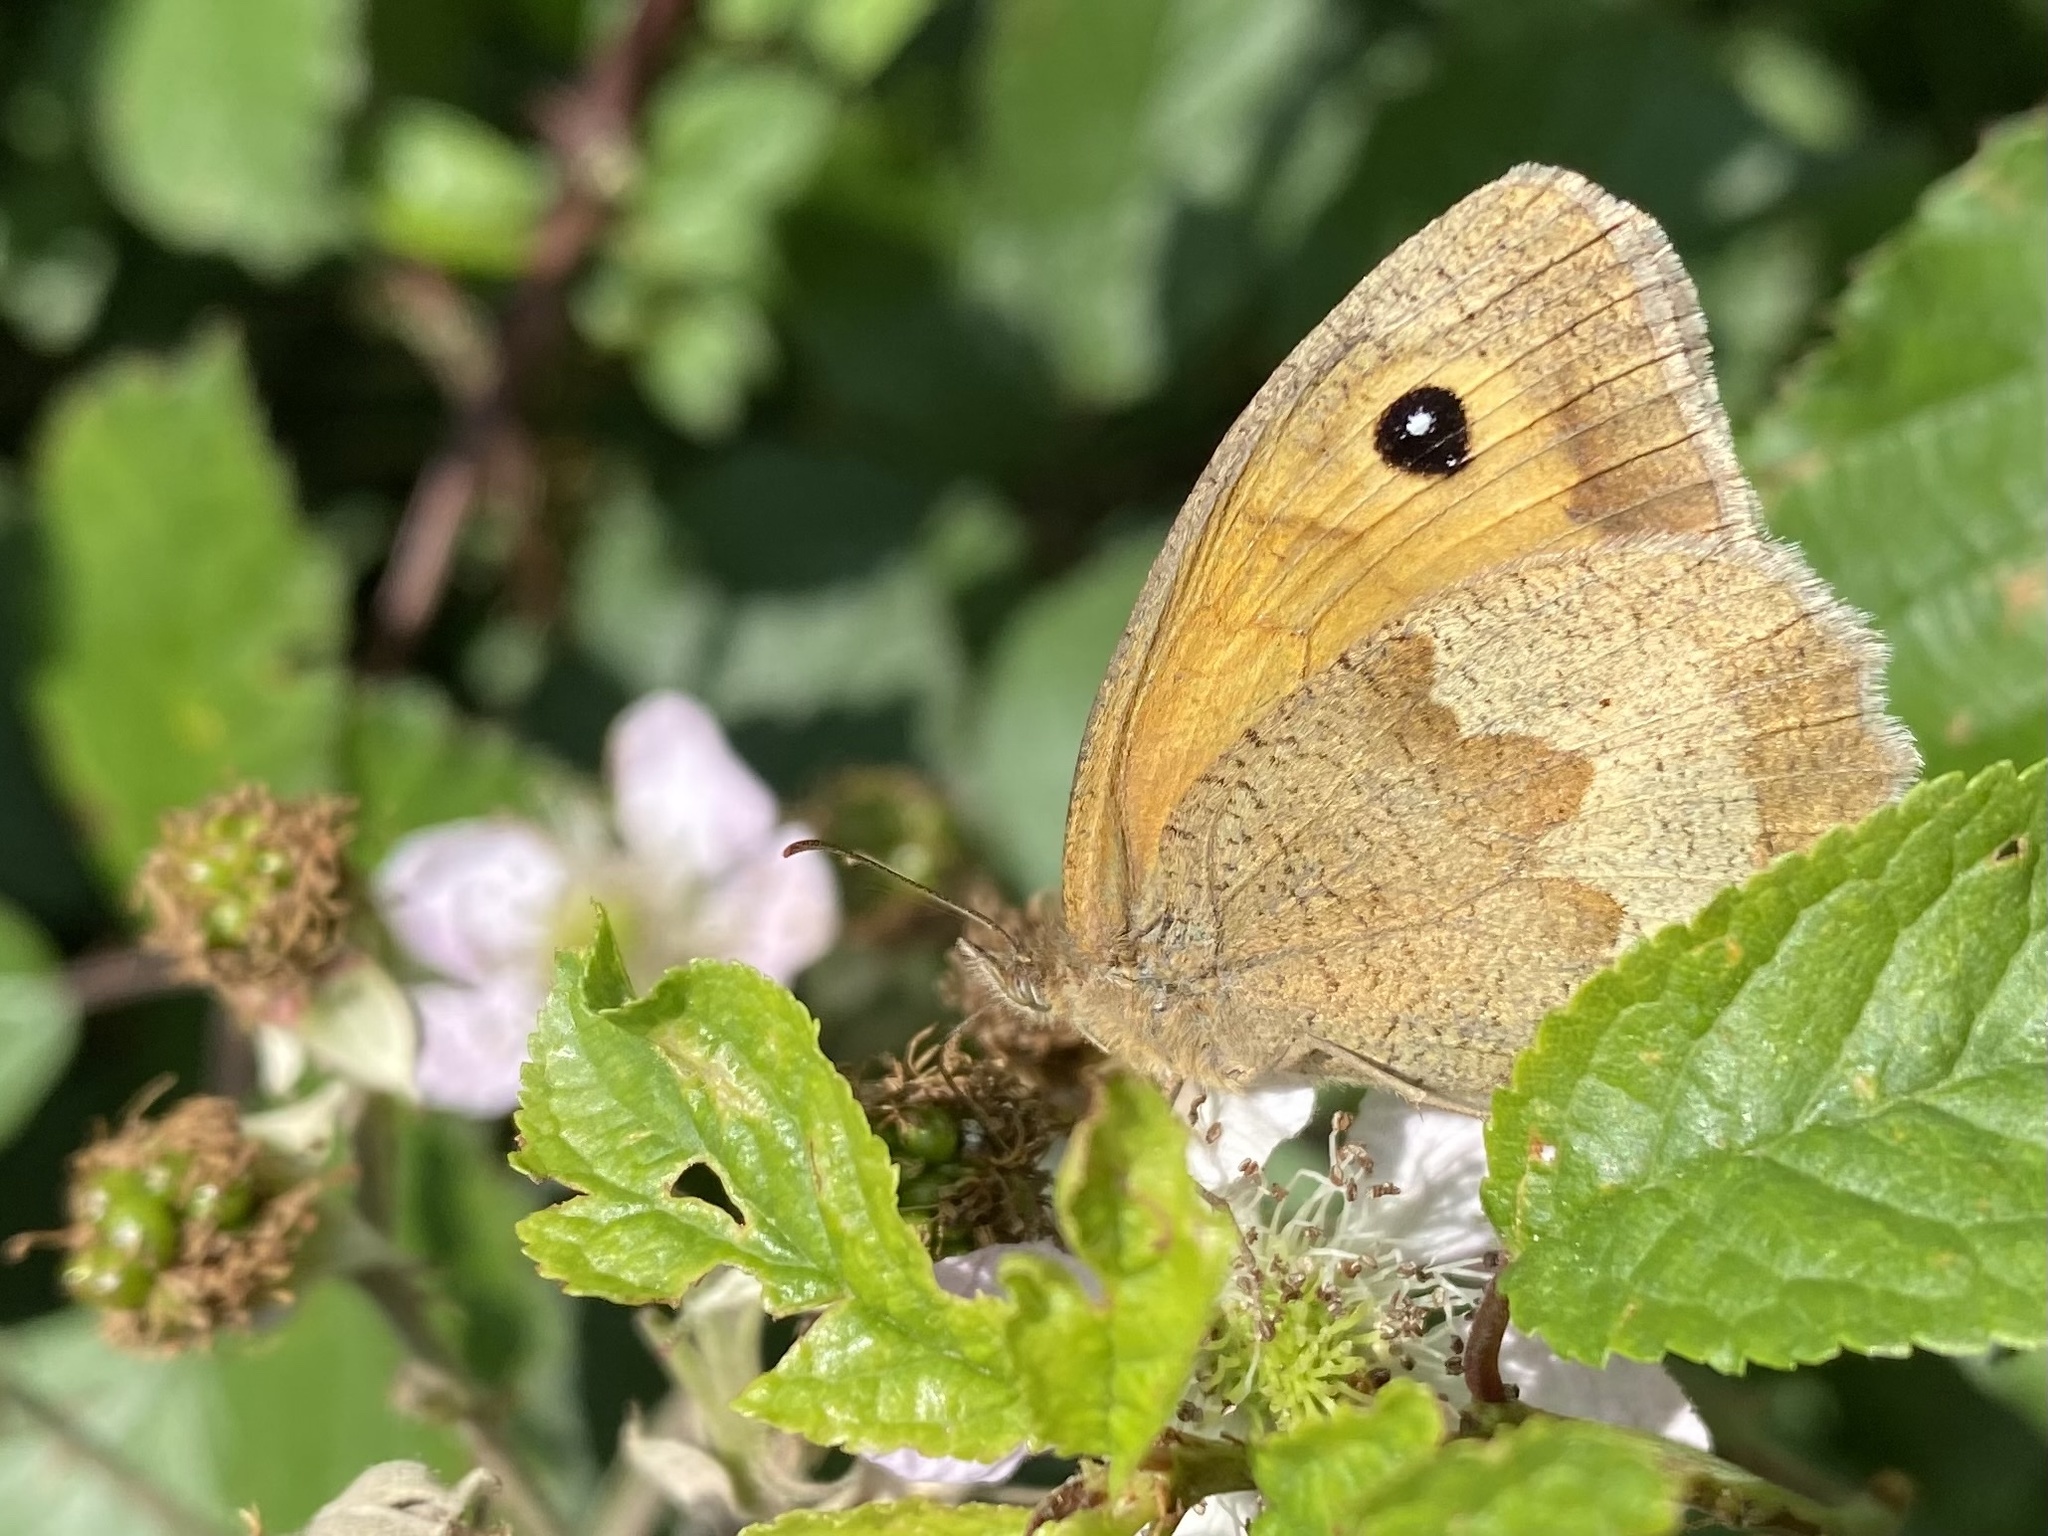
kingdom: Animalia
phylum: Arthropoda
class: Insecta
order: Lepidoptera
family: Nymphalidae
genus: Maniola
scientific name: Maniola jurtina
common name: Meadow brown
